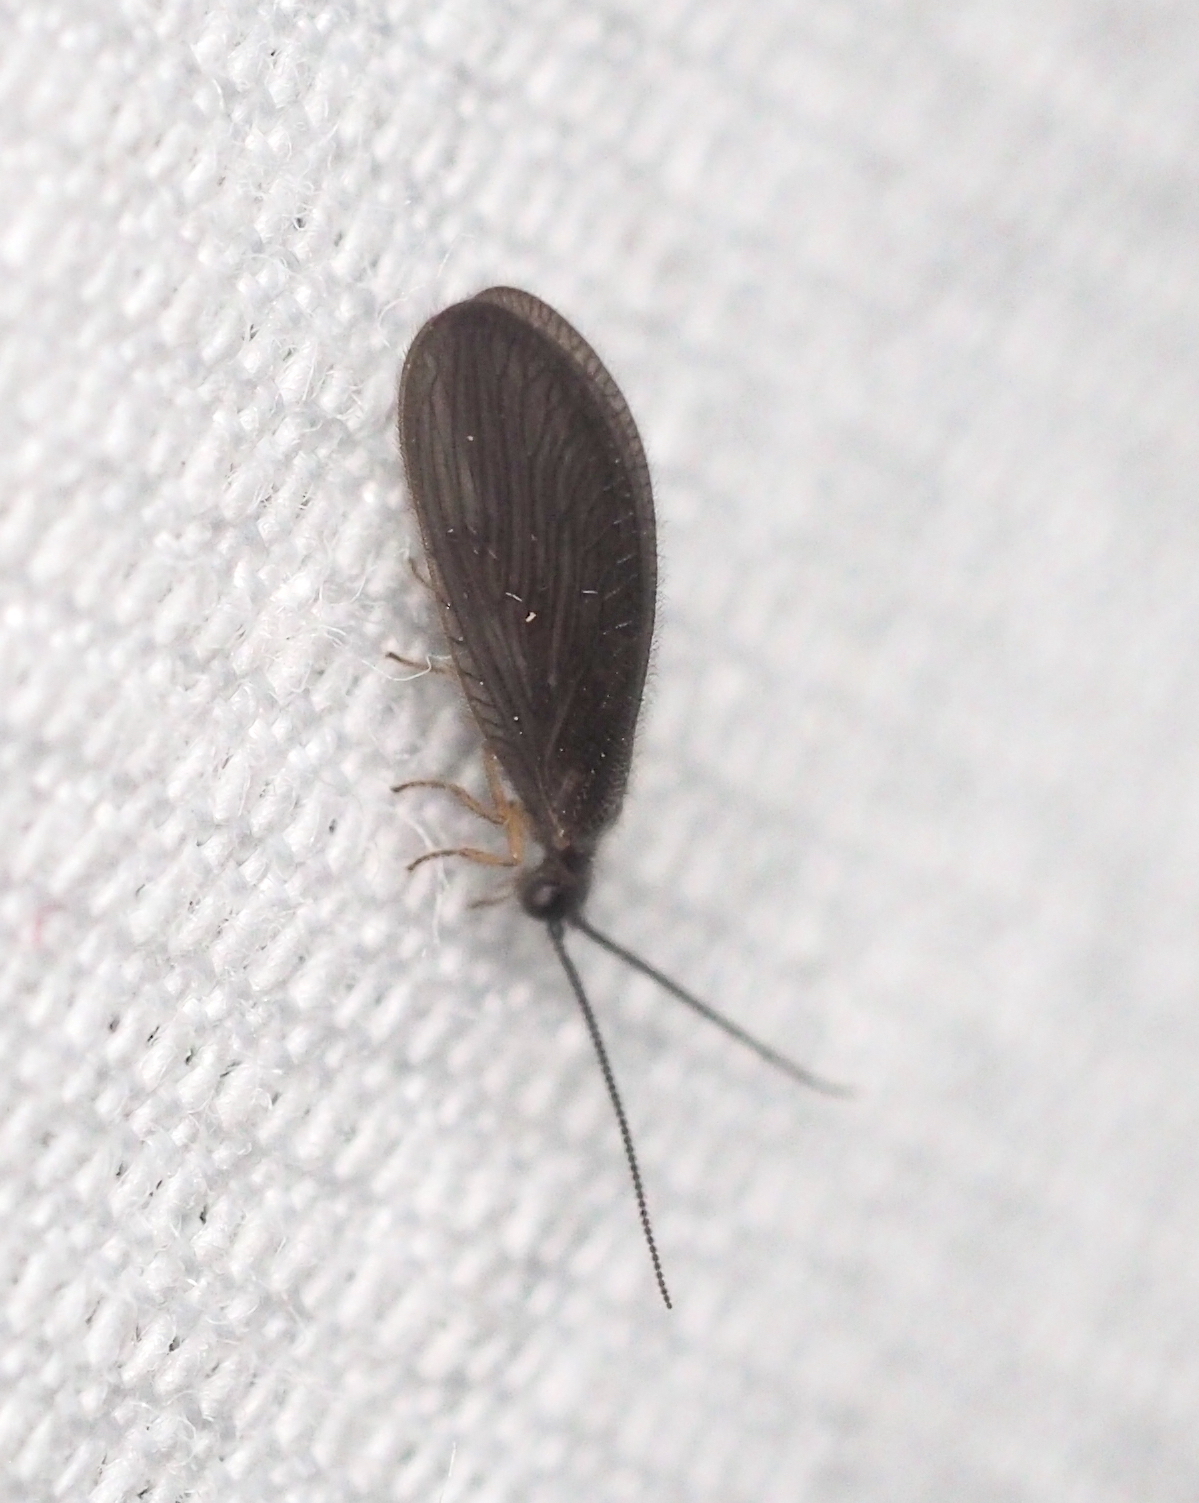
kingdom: Animalia
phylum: Arthropoda
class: Insecta
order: Neuroptera
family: Sisyridae
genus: Sisyra
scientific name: Sisyra nigra
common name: Black spongillafly
